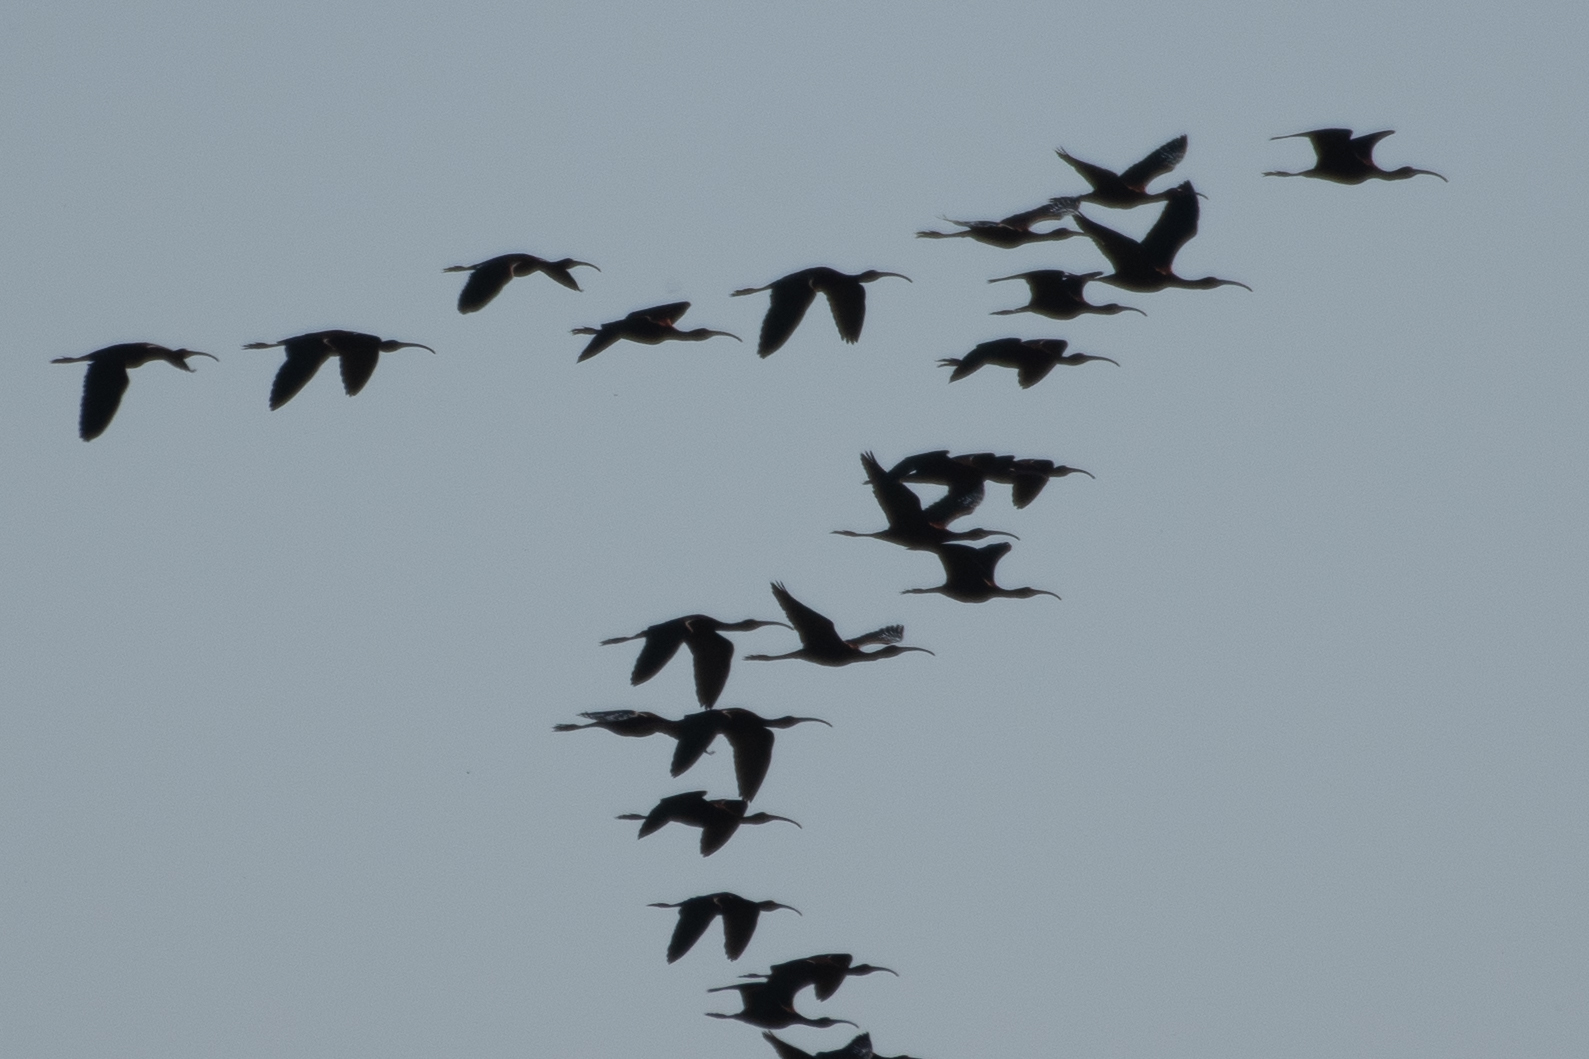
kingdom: Animalia
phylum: Chordata
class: Aves
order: Pelecaniformes
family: Threskiornithidae
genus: Plegadis
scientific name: Plegadis chihi
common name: White-faced ibis
